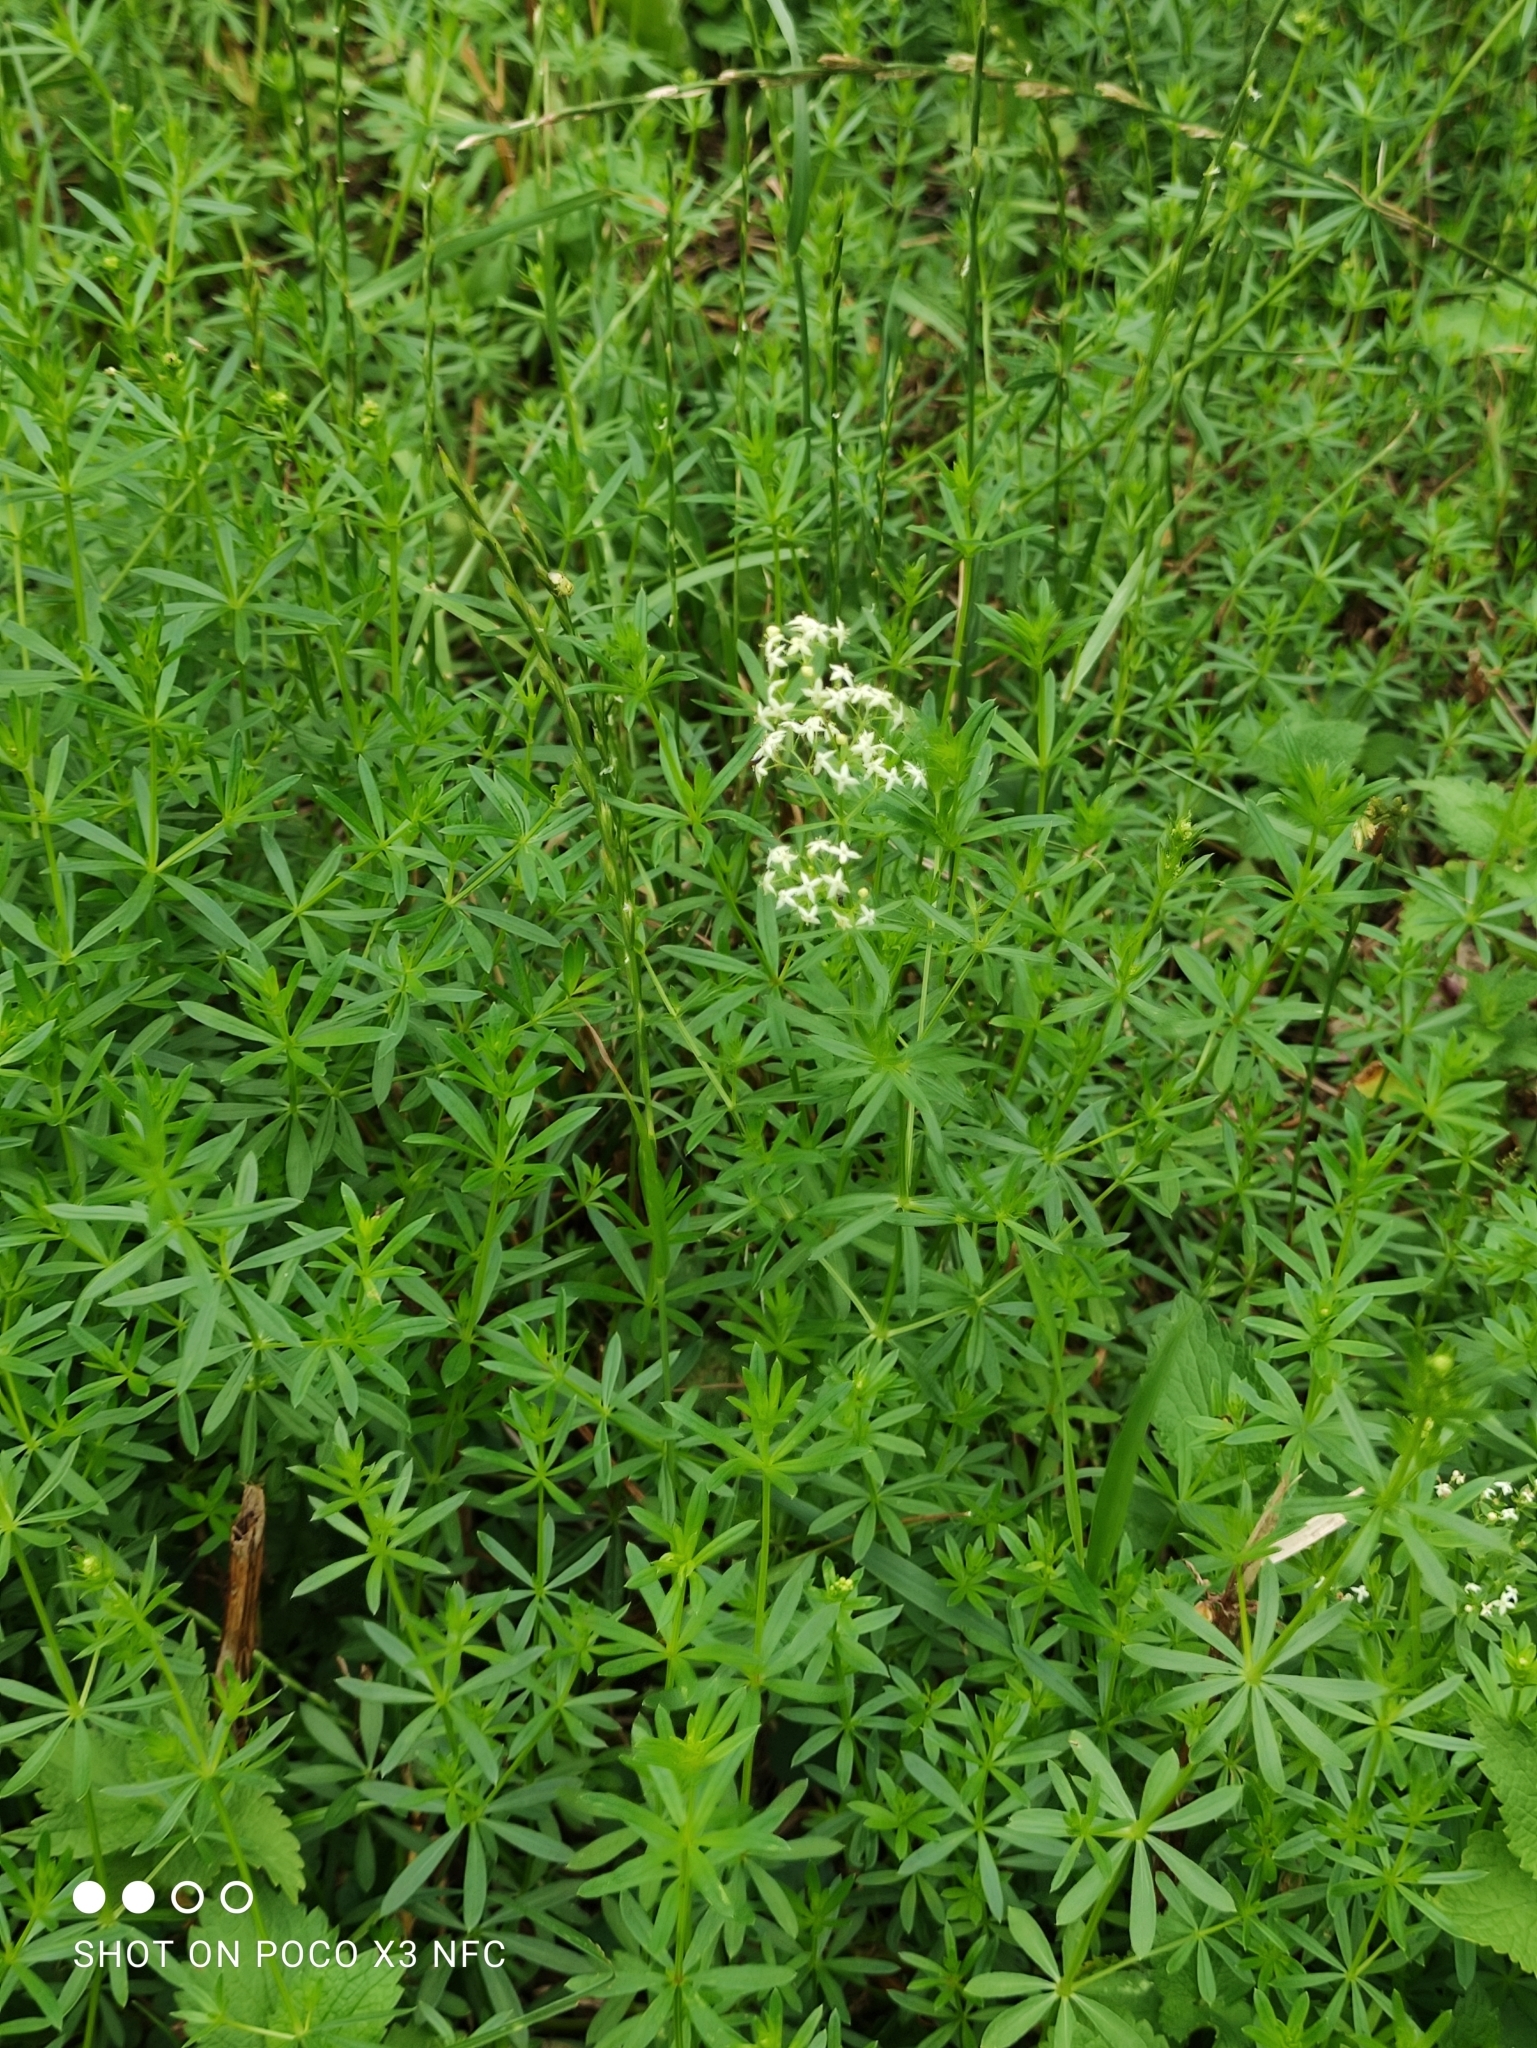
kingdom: Plantae
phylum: Tracheophyta
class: Magnoliopsida
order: Gentianales
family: Rubiaceae
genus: Galium
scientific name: Galium mollugo
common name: Hedge bedstraw
